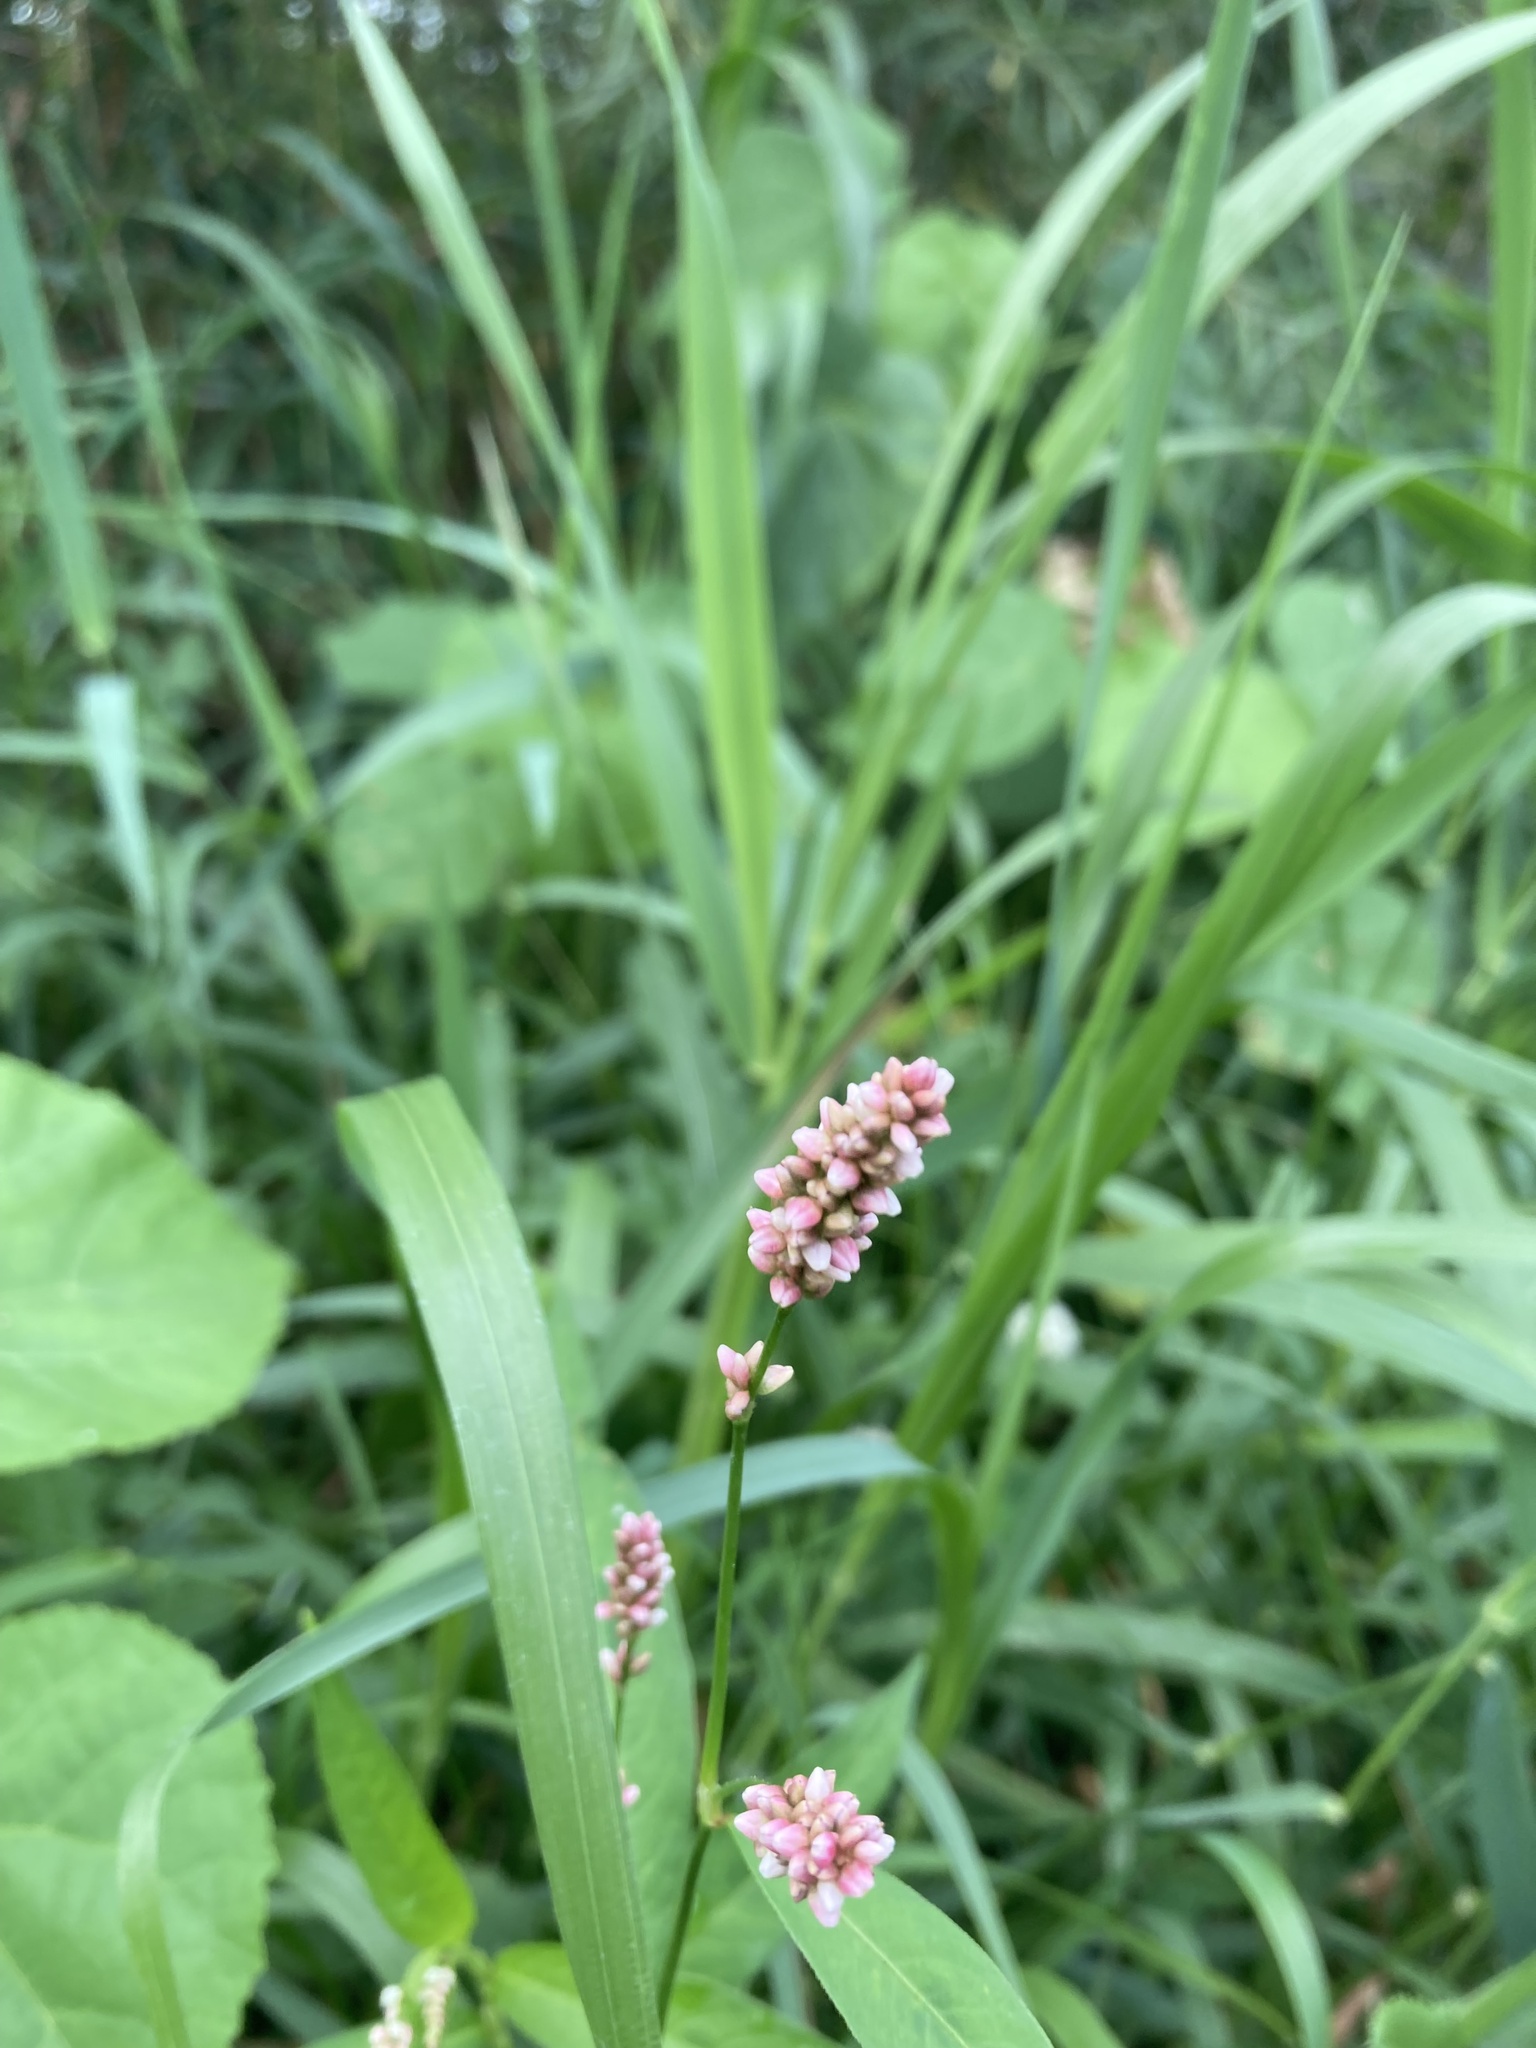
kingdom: Plantae
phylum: Tracheophyta
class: Magnoliopsida
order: Caryophyllales
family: Polygonaceae
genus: Persicaria
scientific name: Persicaria maculosa
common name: Redshank
